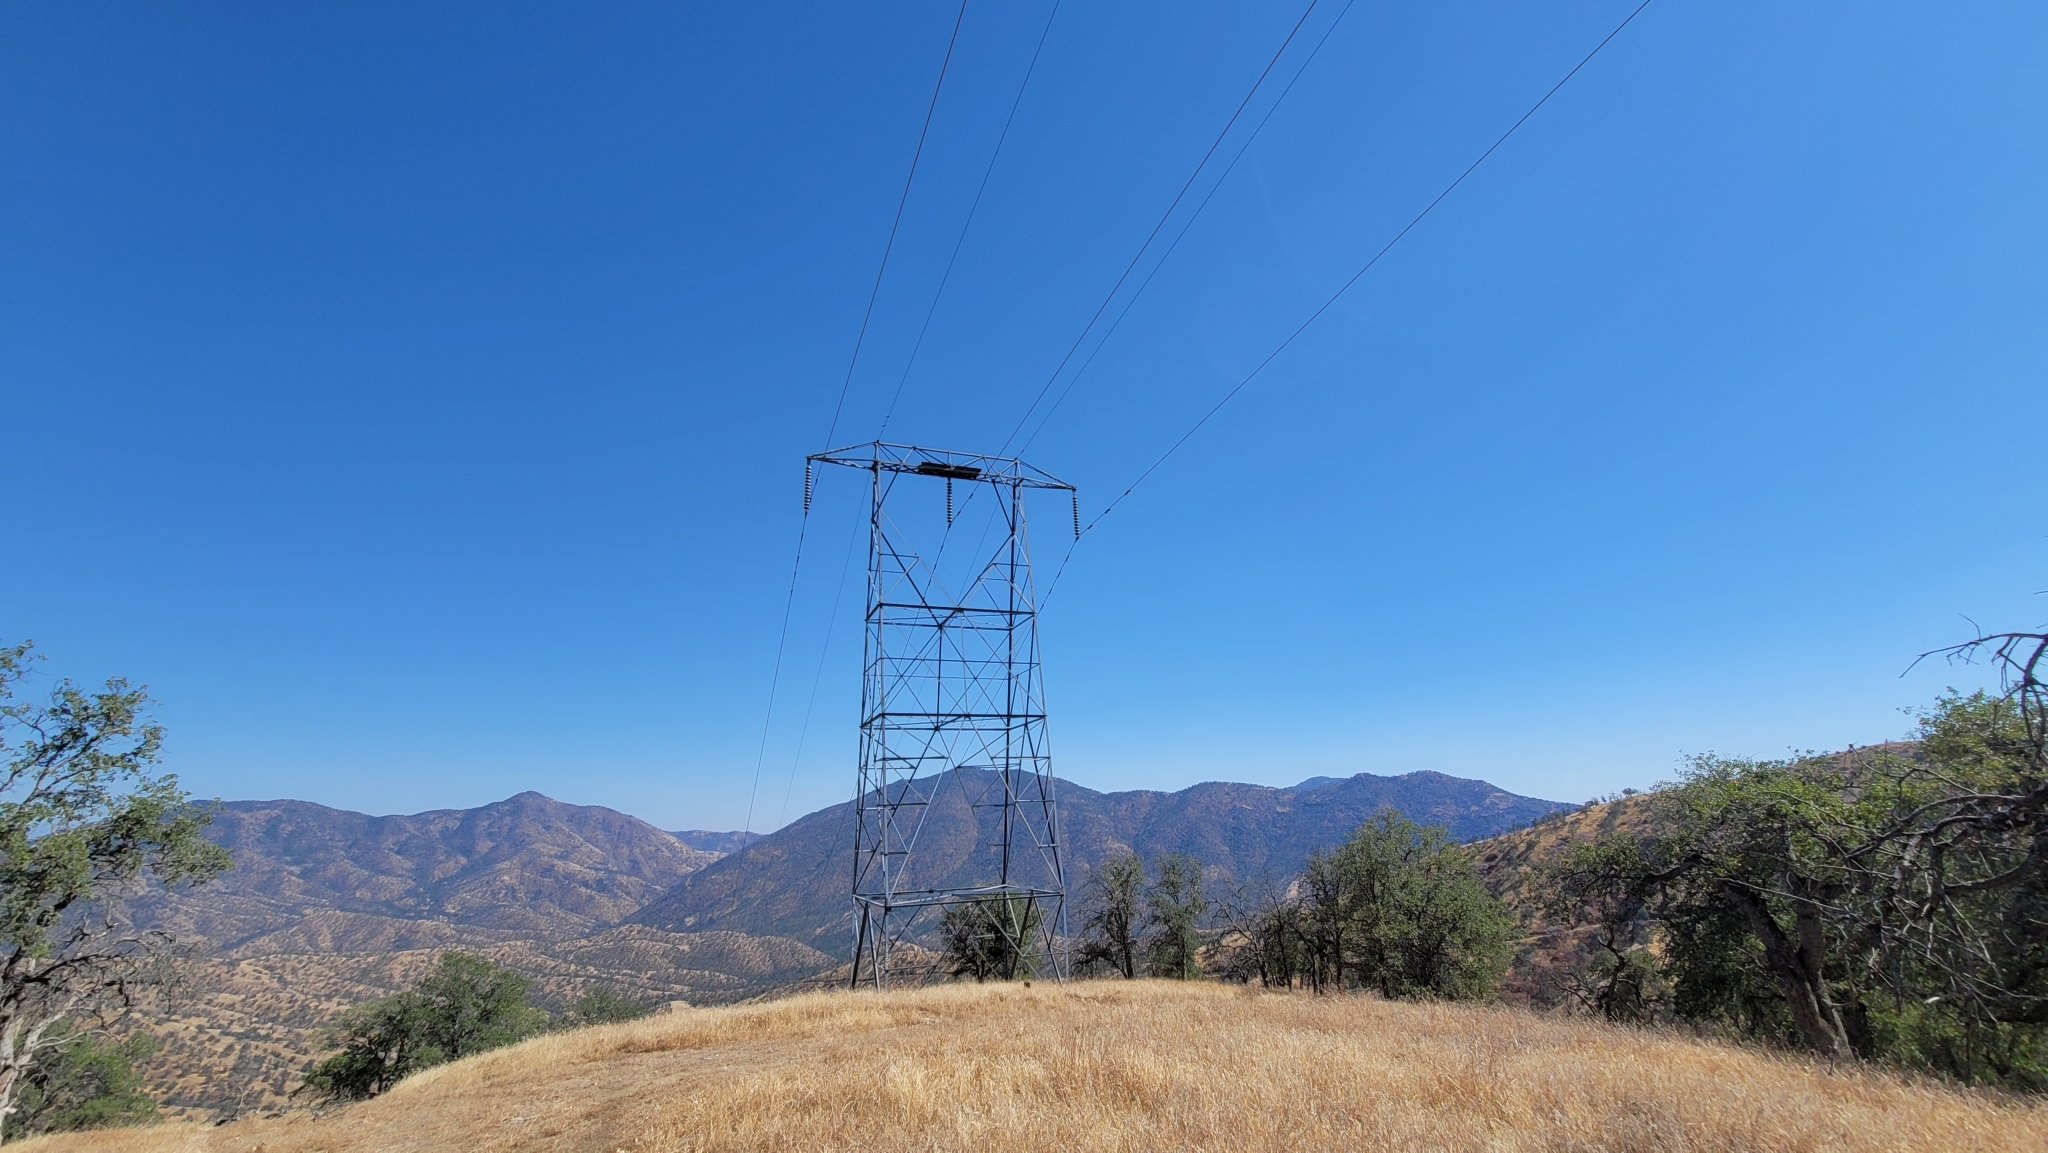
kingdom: Animalia
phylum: Chordata
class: Aves
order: Passeriformes
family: Hirundinidae
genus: Progne
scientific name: Progne subis
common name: Purple martin
